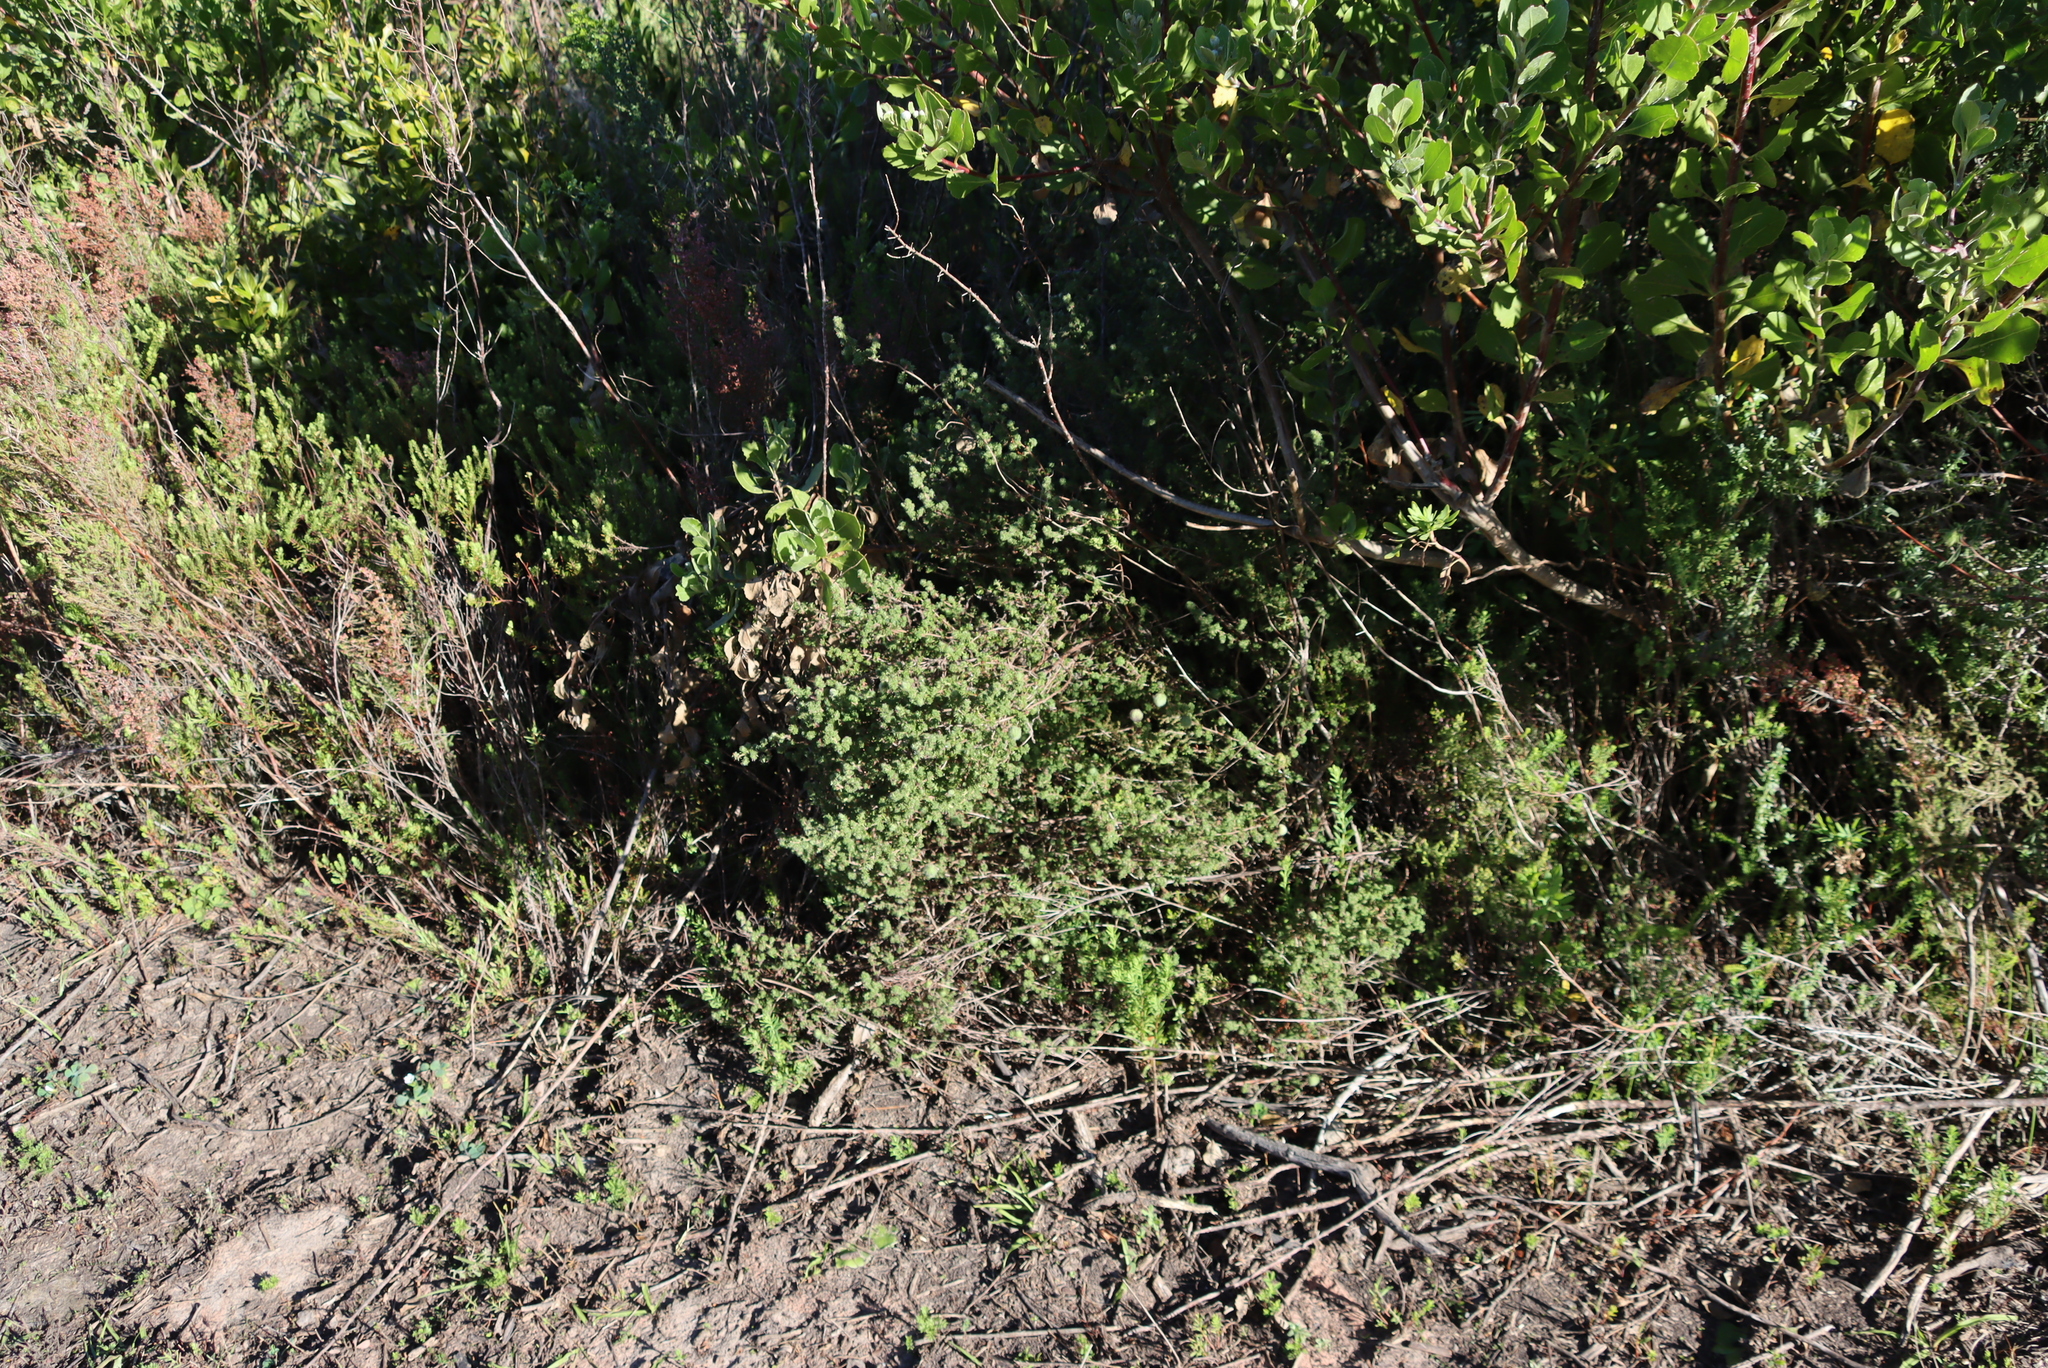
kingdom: Plantae
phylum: Tracheophyta
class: Magnoliopsida
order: Rosales
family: Rosaceae
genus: Cliffortia
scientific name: Cliffortia filicaulis
